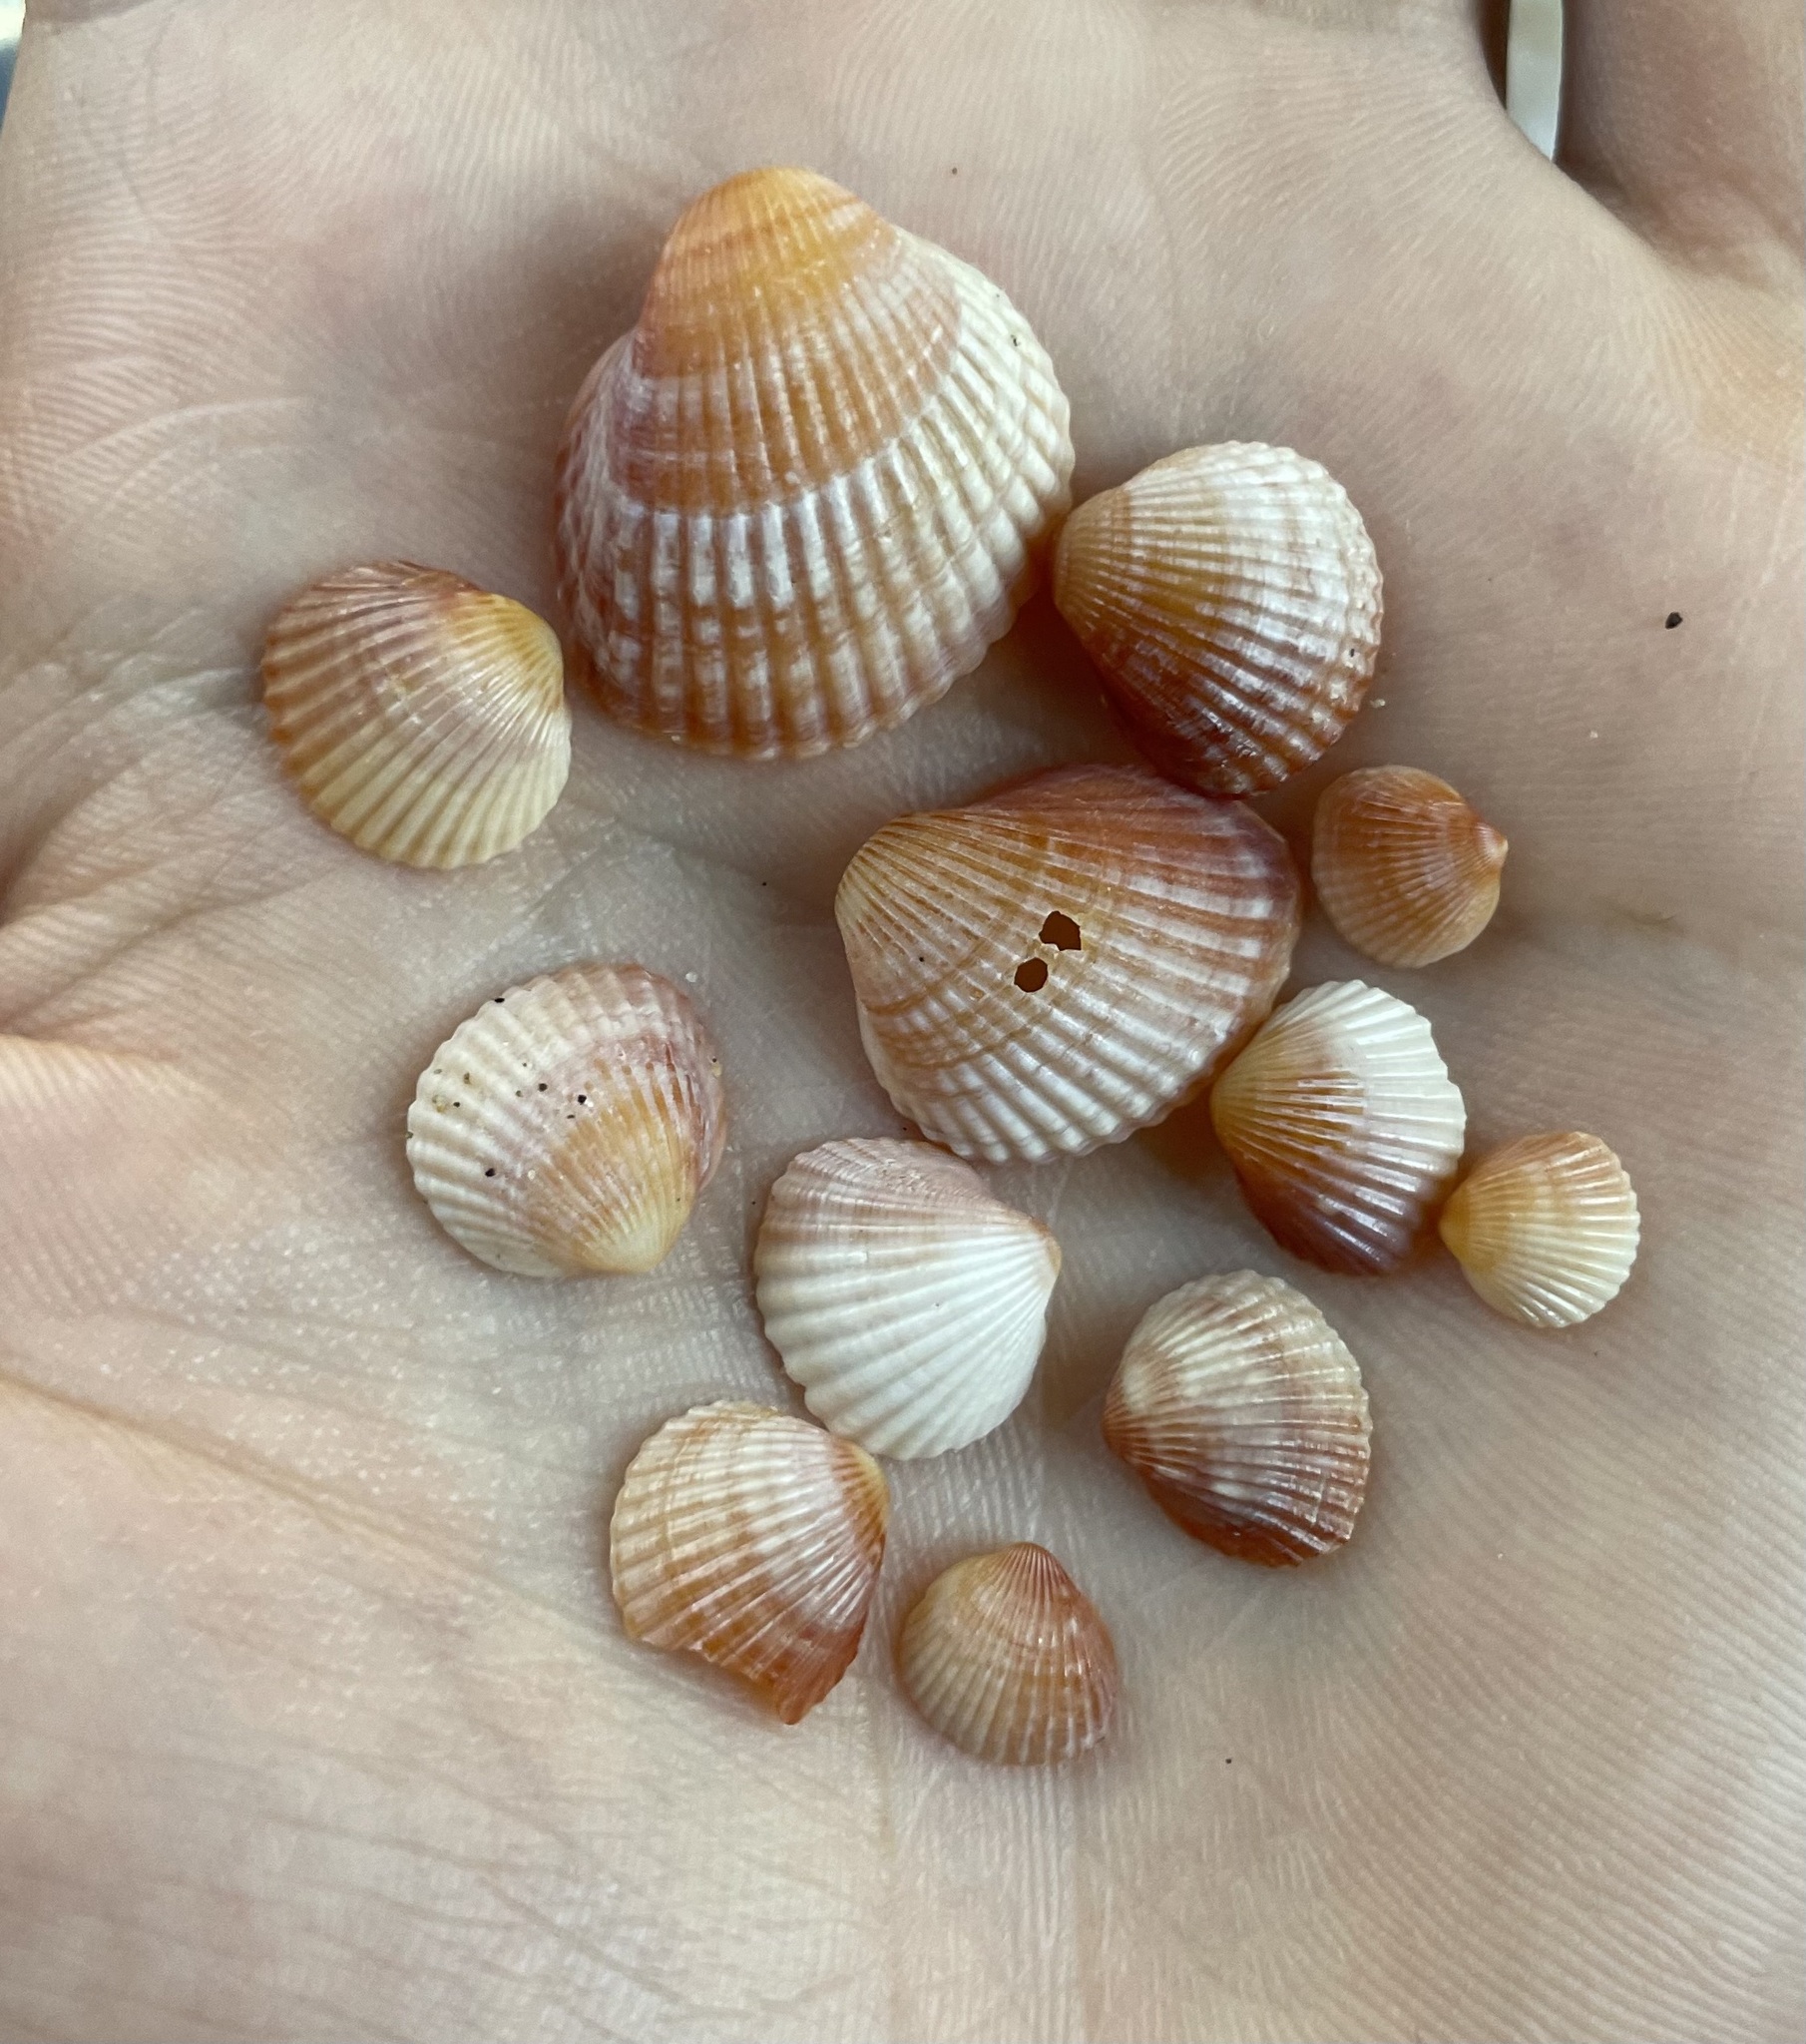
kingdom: Animalia
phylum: Mollusca
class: Bivalvia
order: Cardiida
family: Cardiidae
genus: Cerastoderma
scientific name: Cerastoderma glaucum
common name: Lagoon cockle
